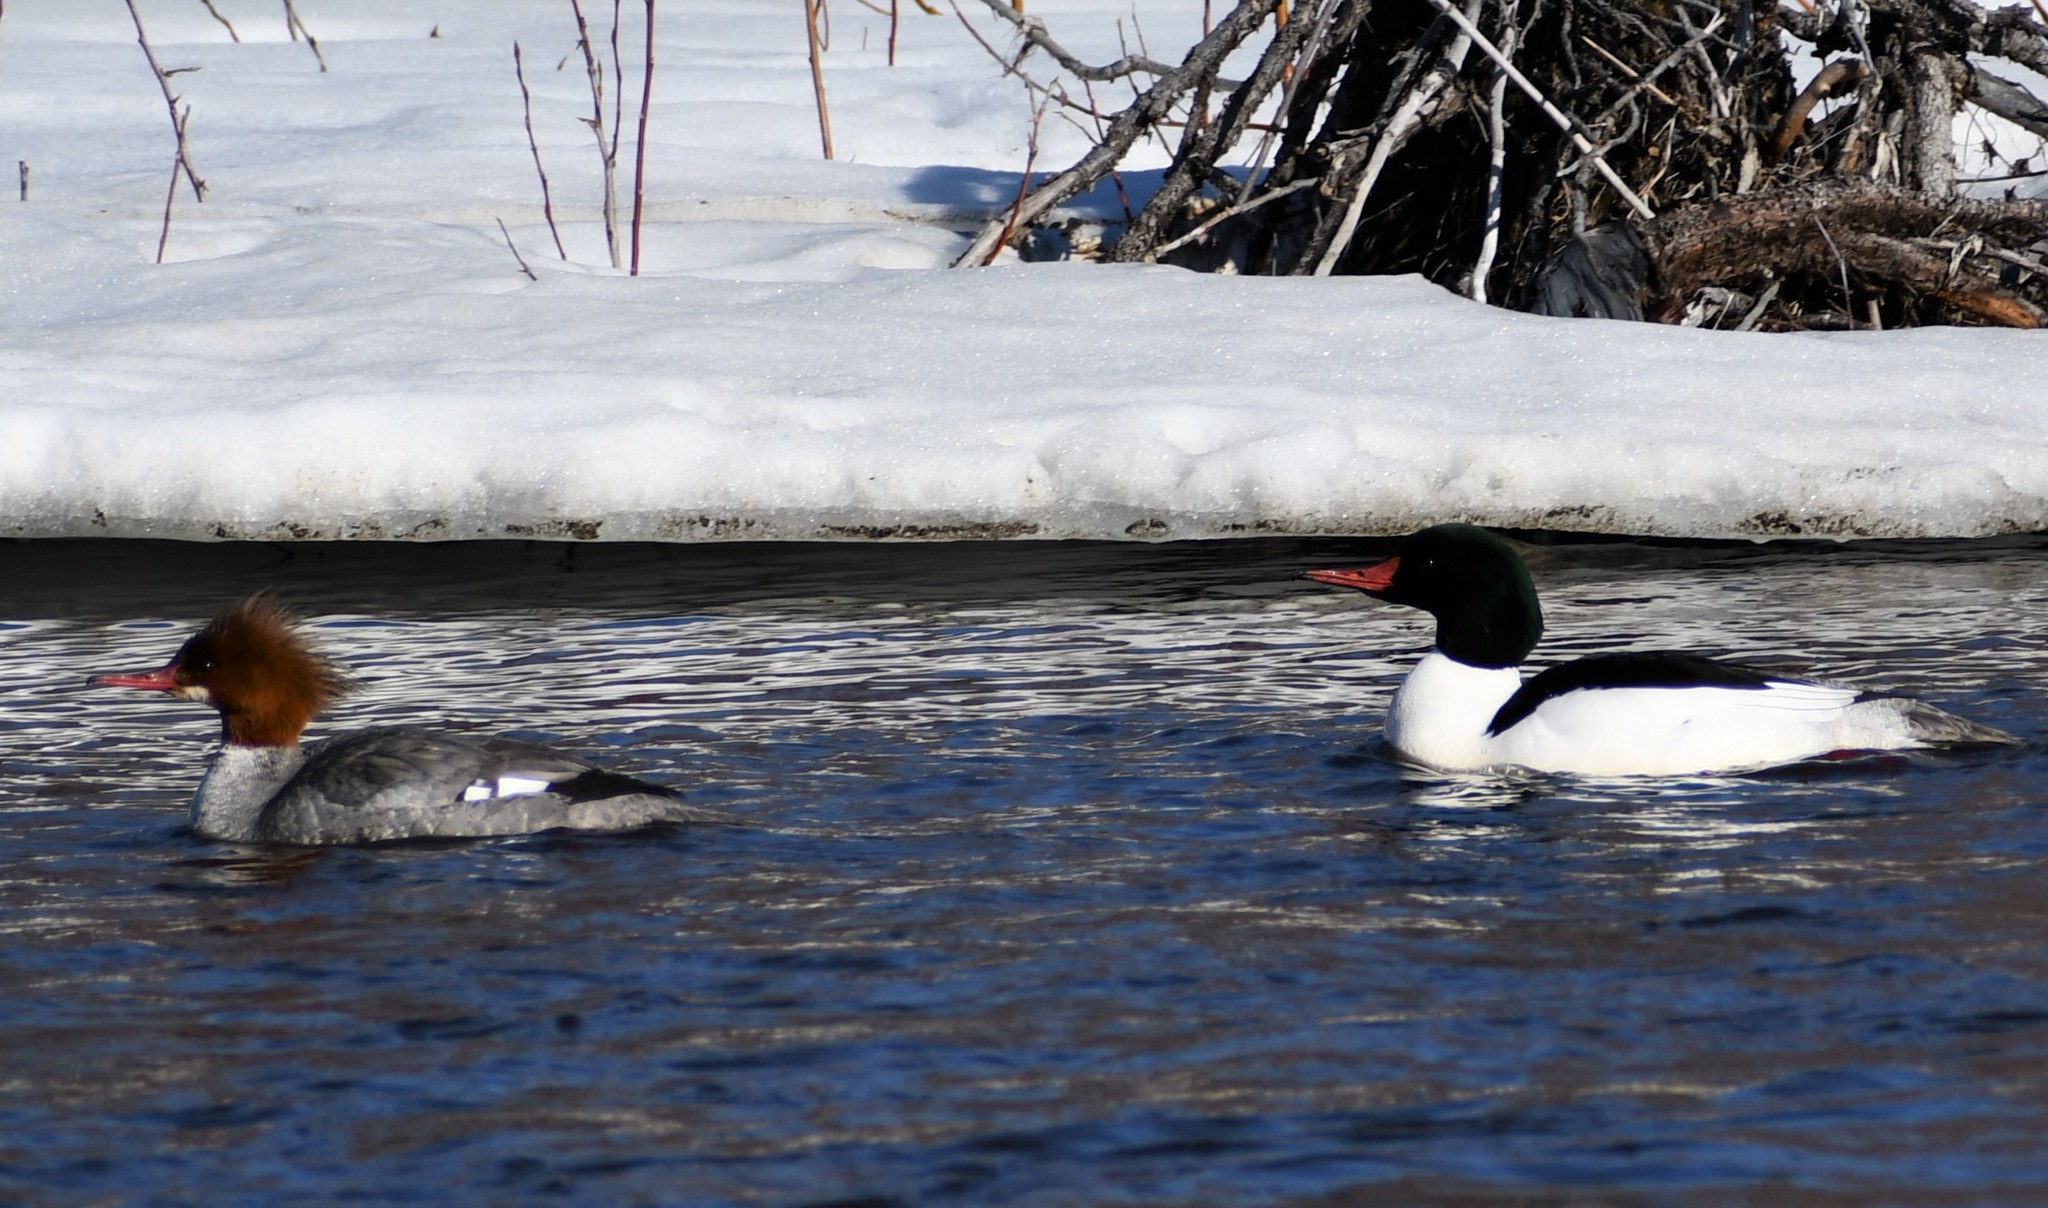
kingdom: Animalia
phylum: Chordata
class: Aves
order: Anseriformes
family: Anatidae
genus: Mergus
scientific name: Mergus merganser
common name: Common merganser
